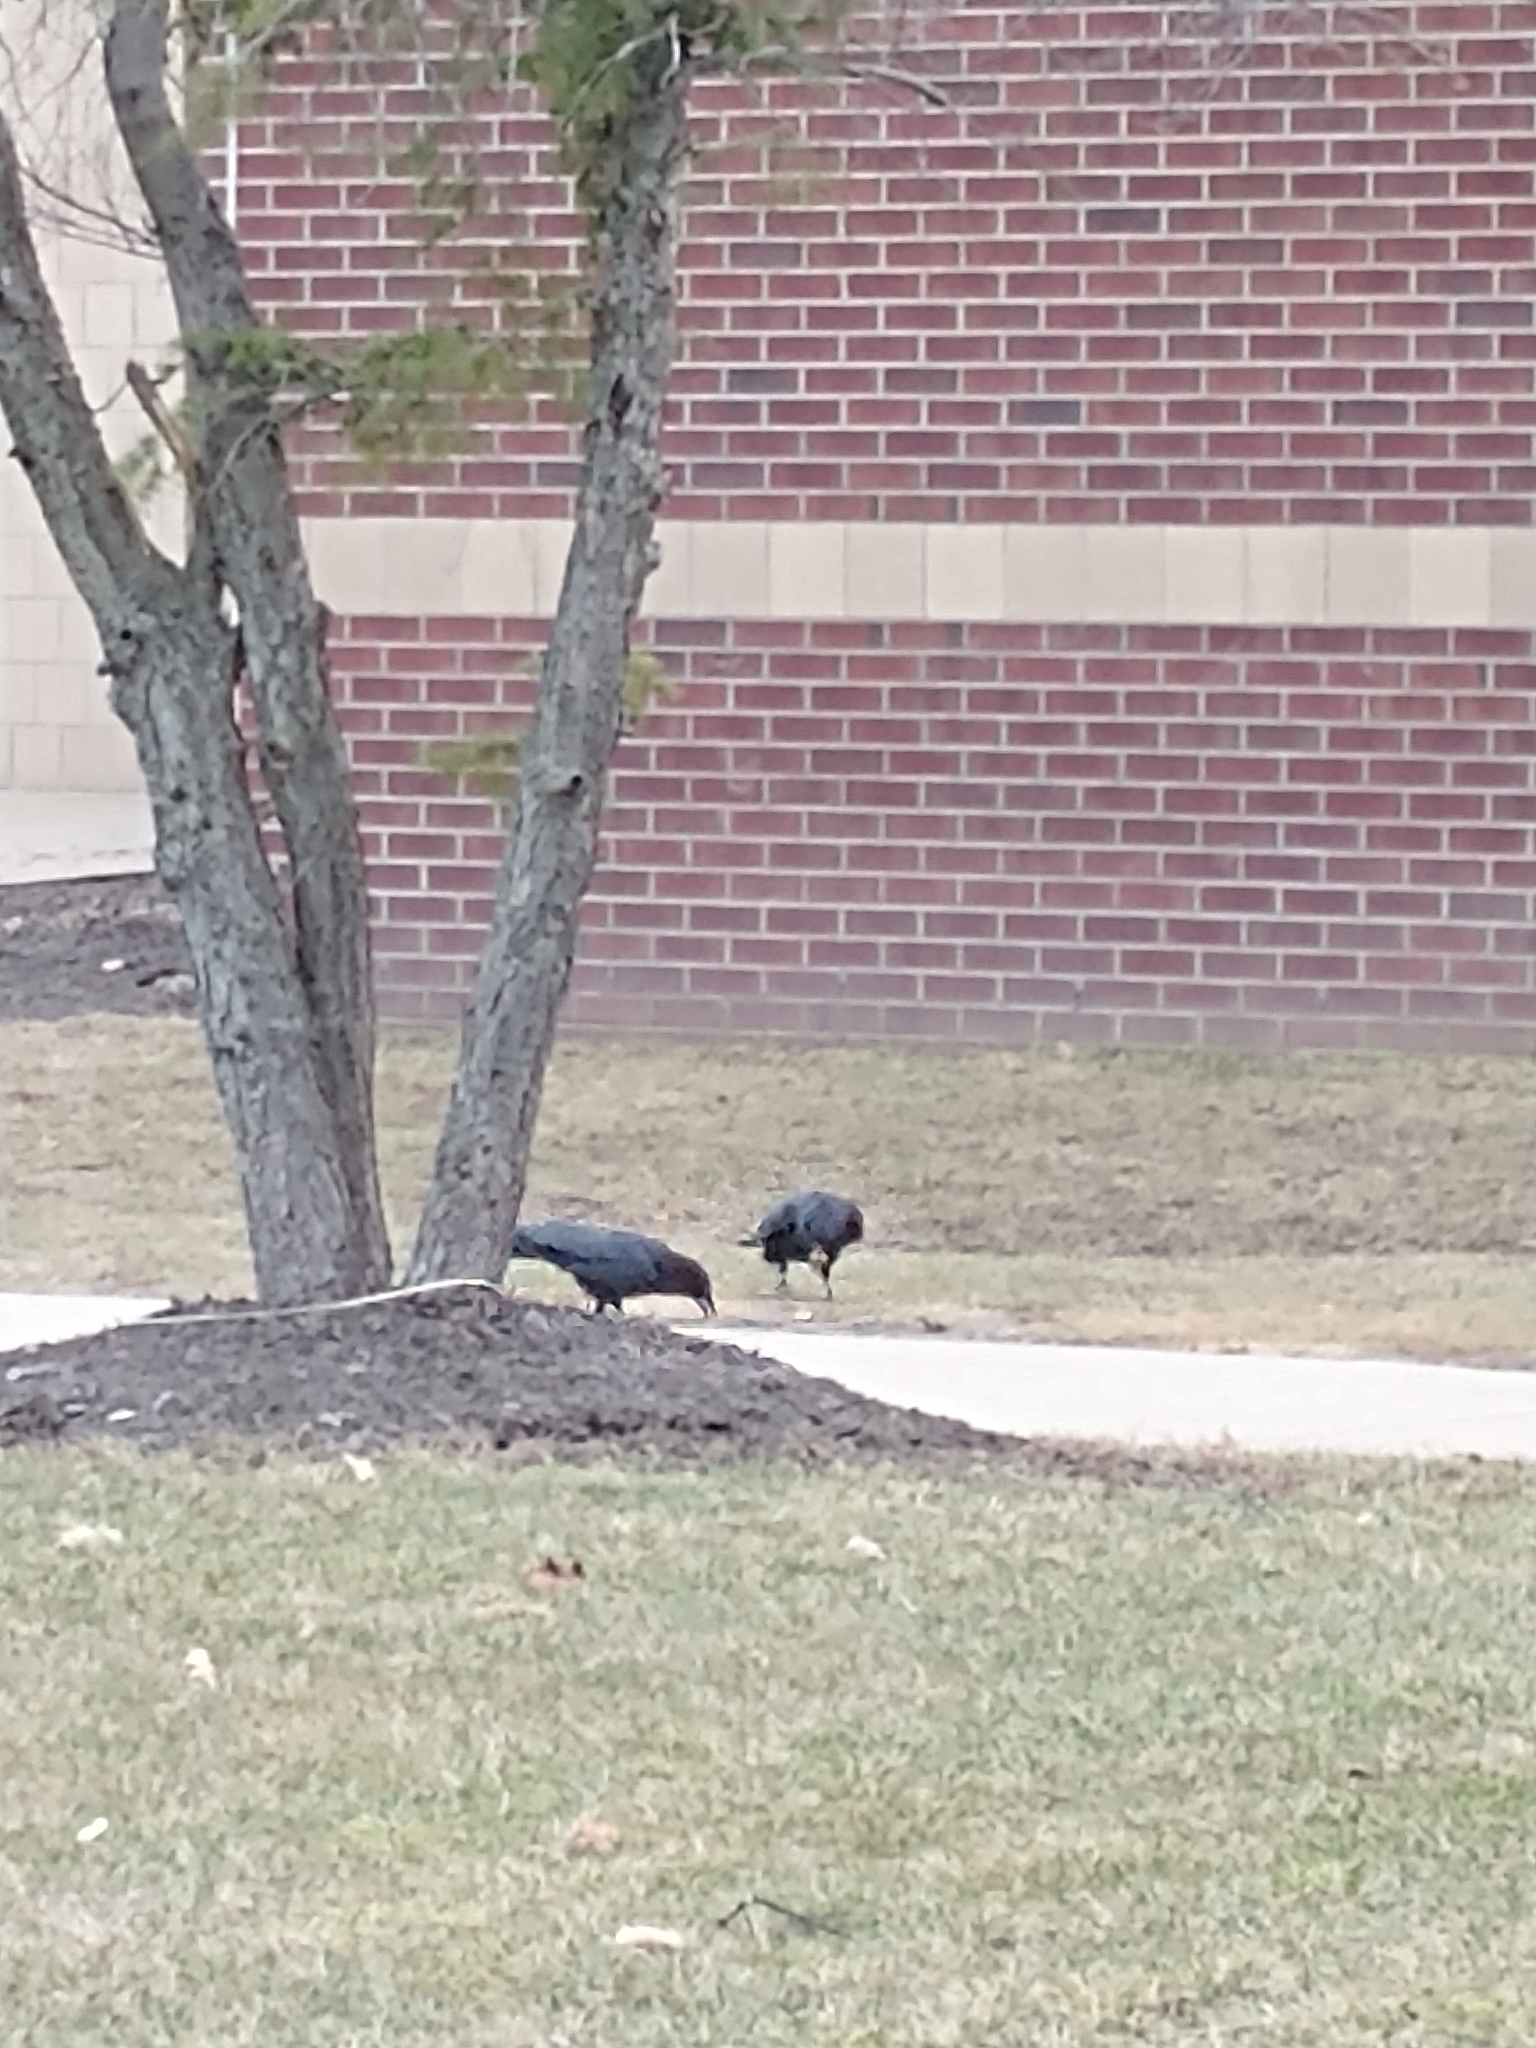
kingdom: Animalia
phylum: Chordata
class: Aves
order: Passeriformes
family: Corvidae
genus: Corvus
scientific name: Corvus brachyrhynchos
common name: American crow
